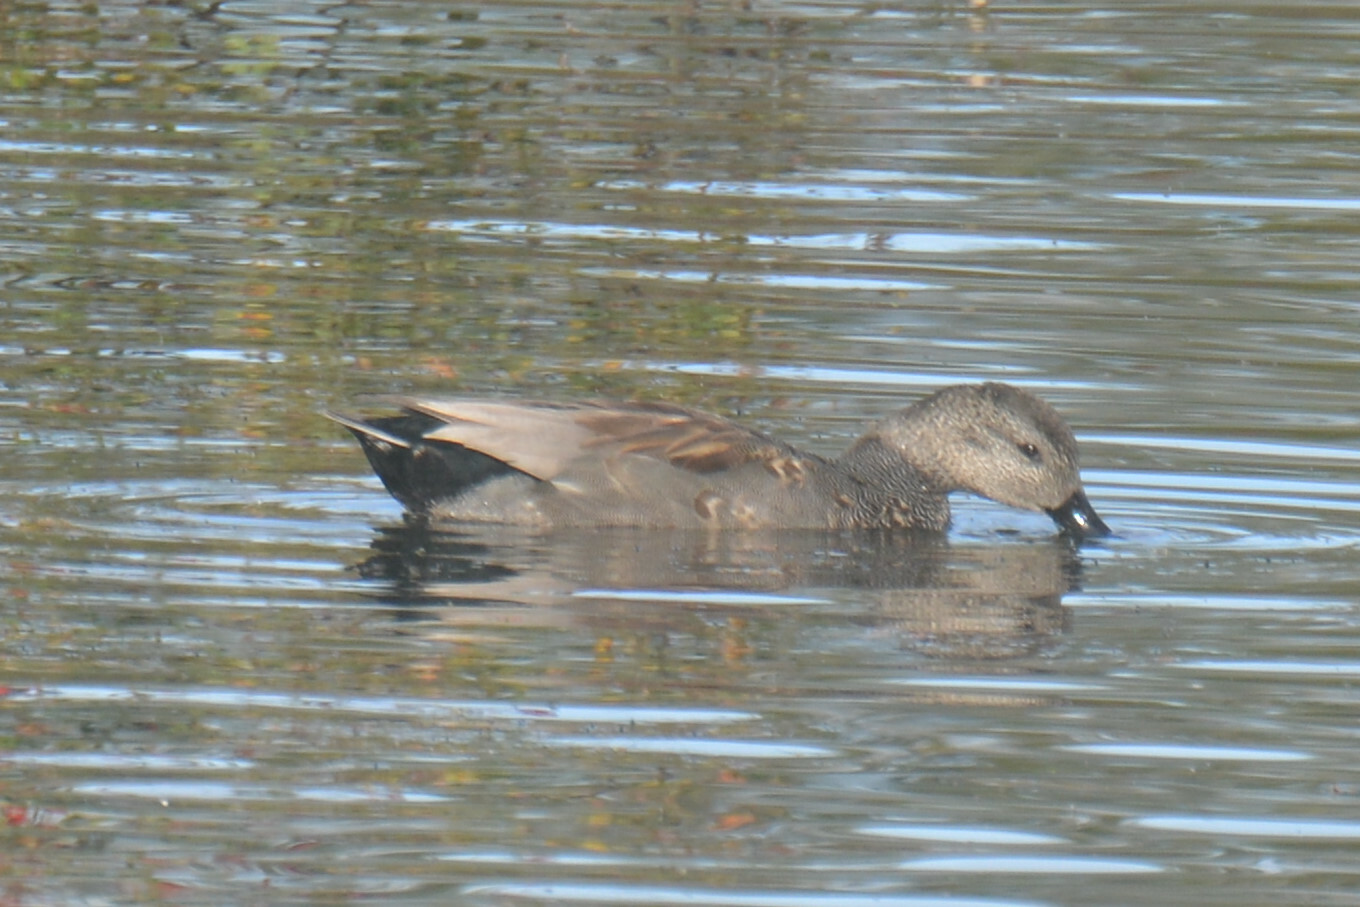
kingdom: Animalia
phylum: Chordata
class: Aves
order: Anseriformes
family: Anatidae
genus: Mareca
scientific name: Mareca strepera
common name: Gadwall
